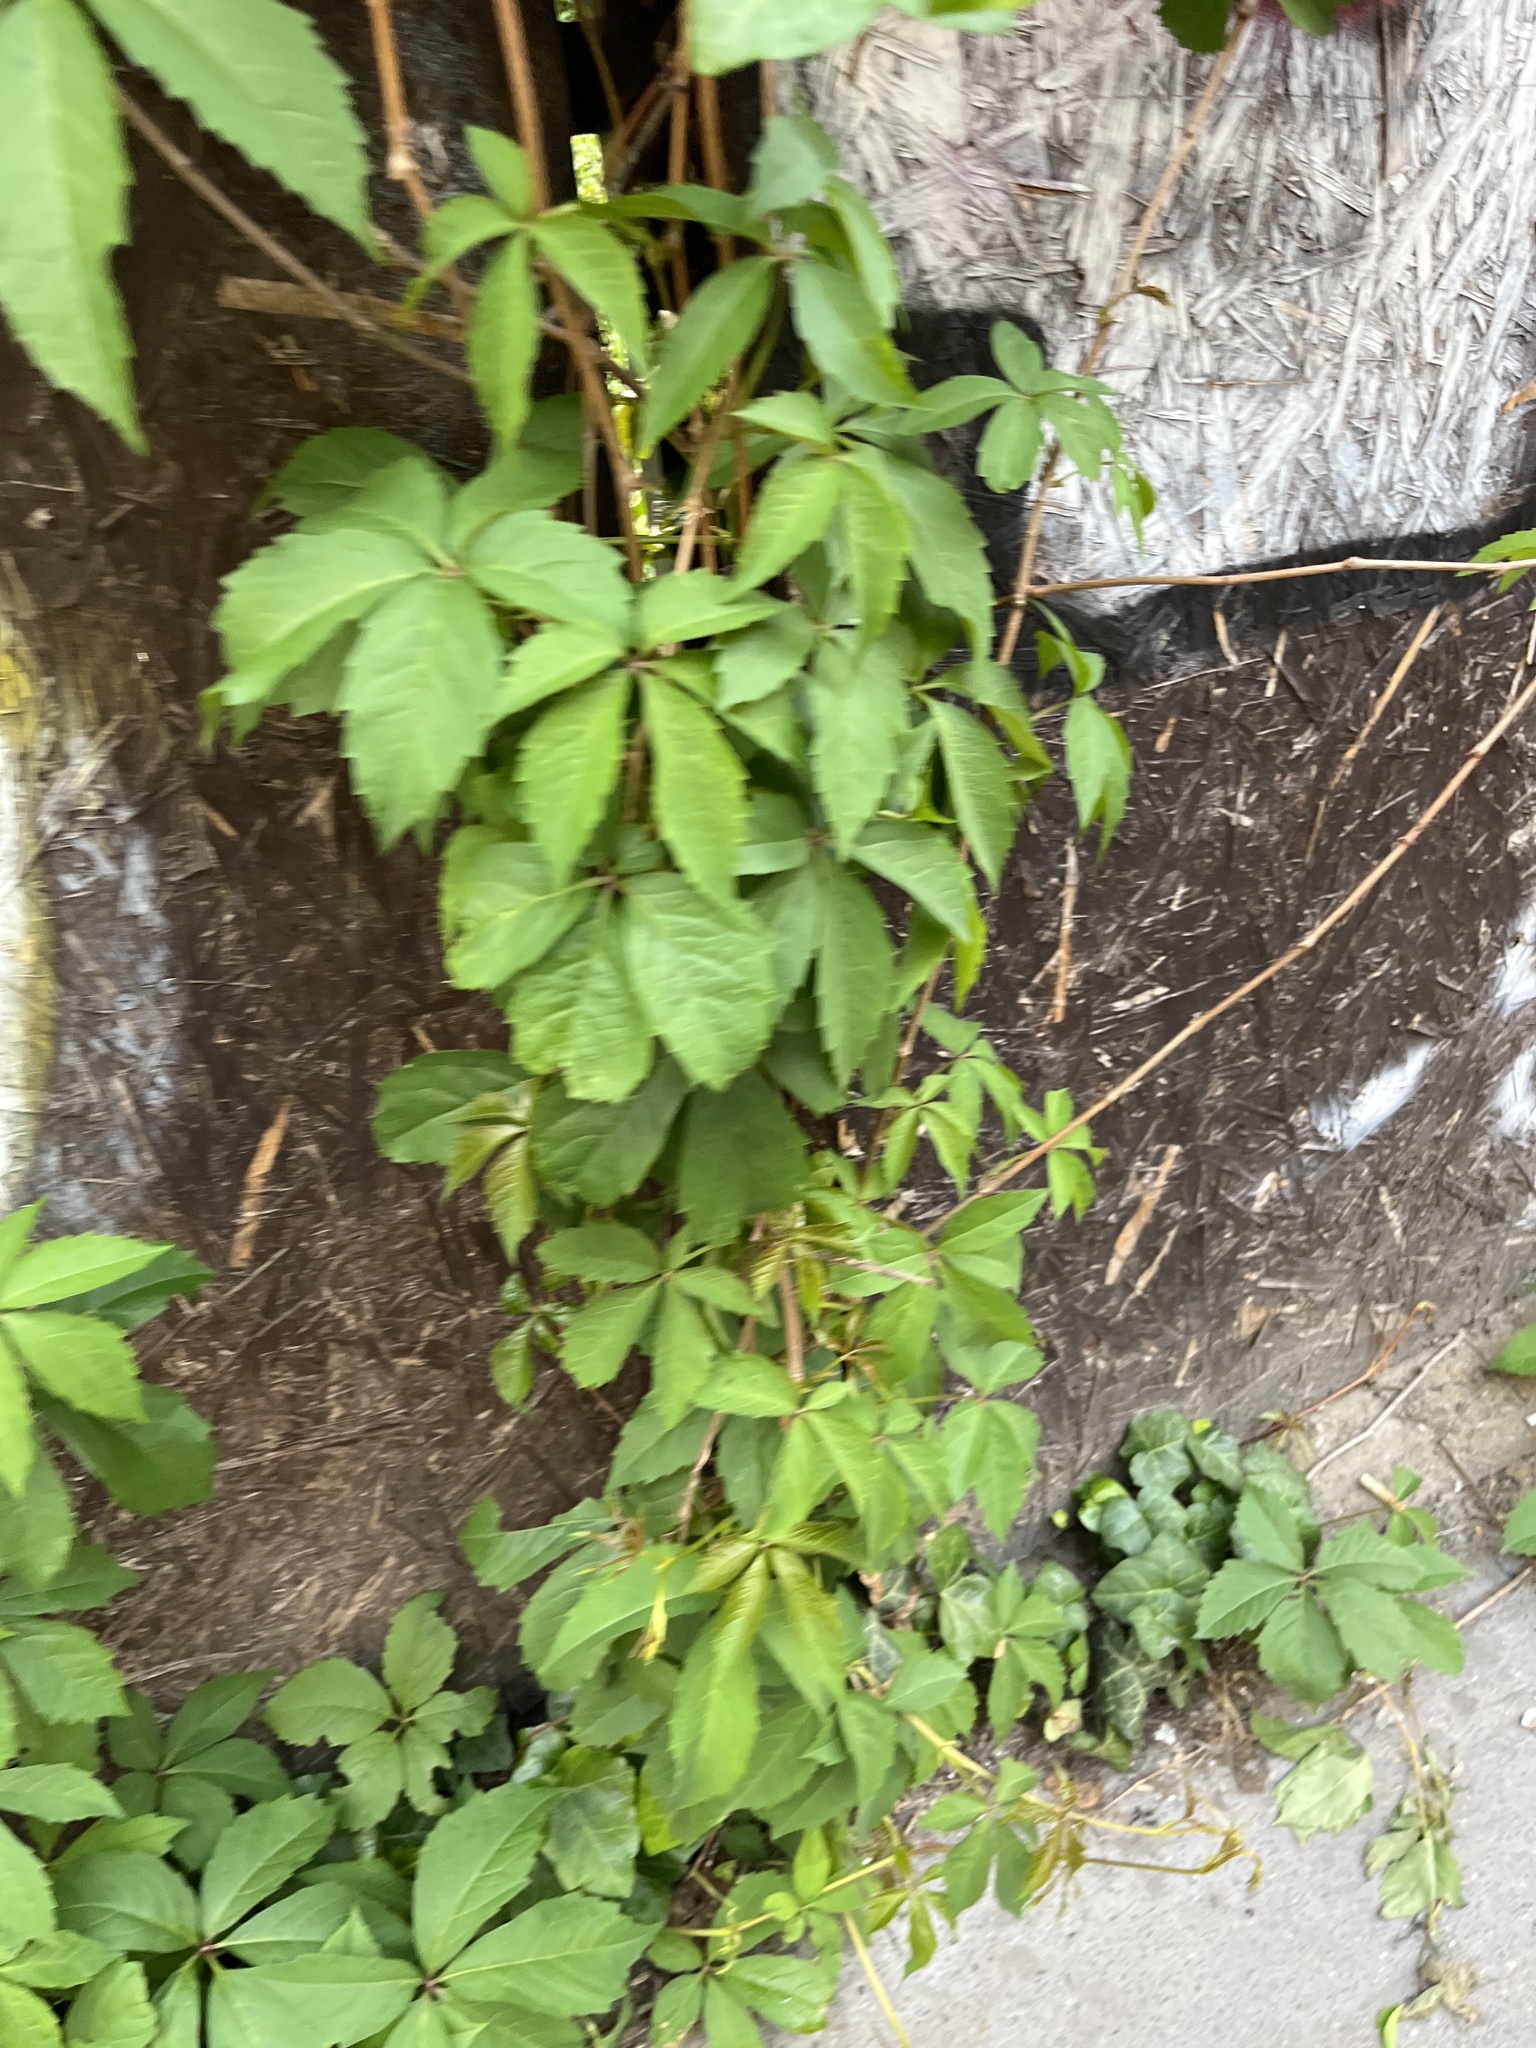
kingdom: Plantae
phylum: Tracheophyta
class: Magnoliopsida
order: Vitales
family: Vitaceae
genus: Parthenocissus
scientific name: Parthenocissus inserta
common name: False virginia-creeper
